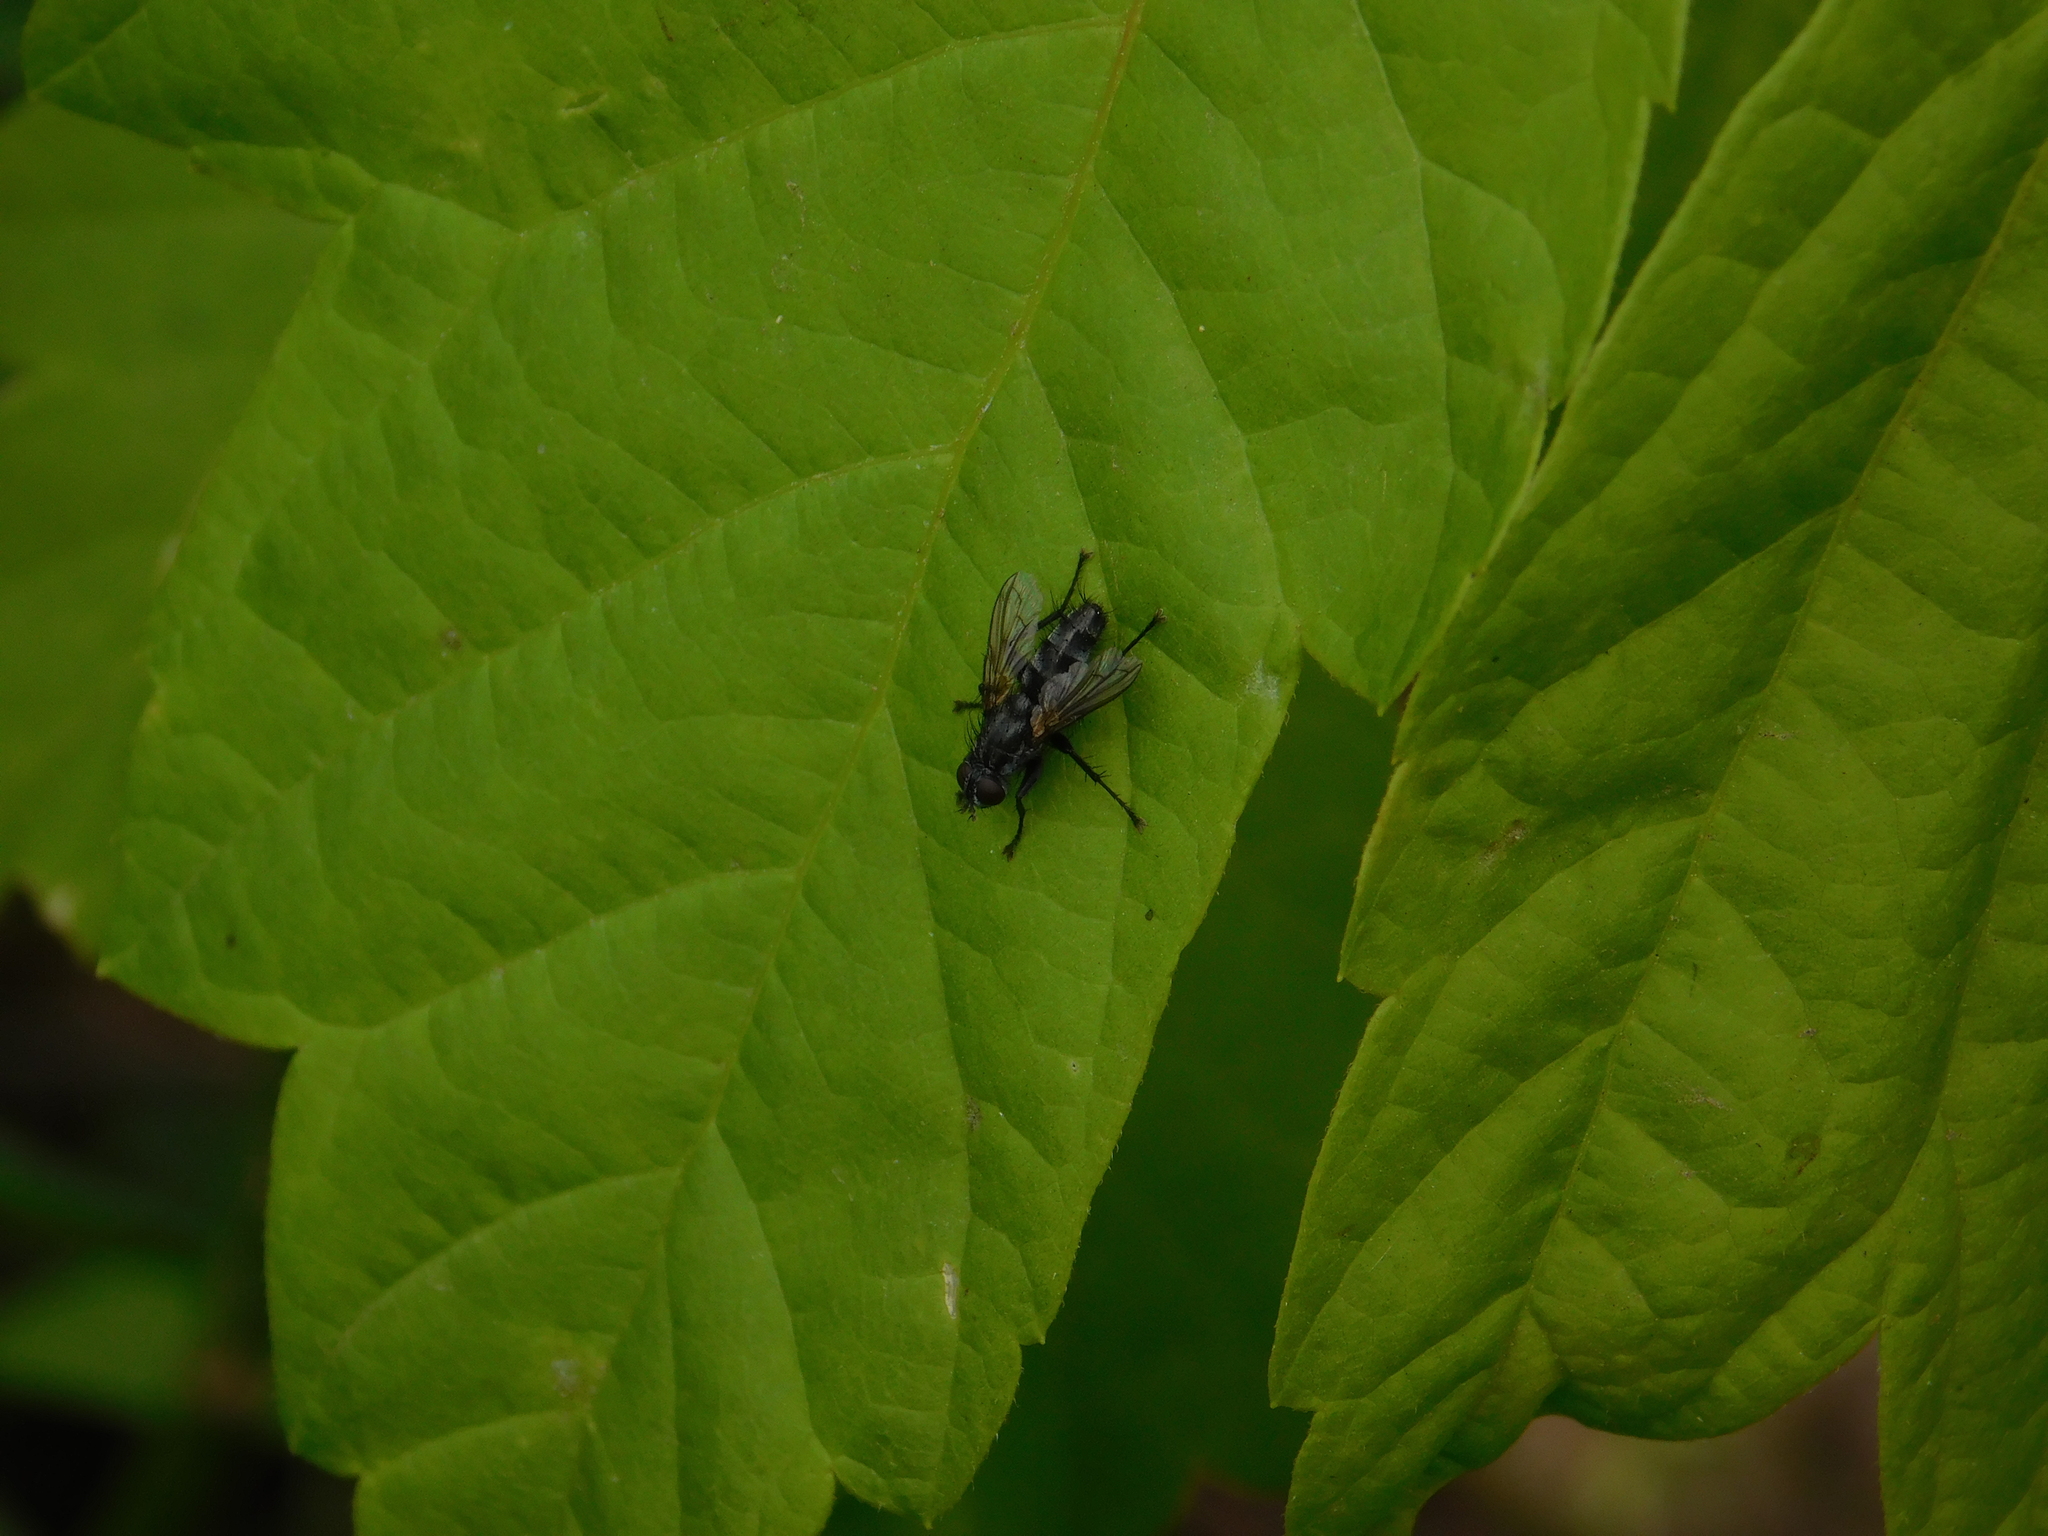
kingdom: Animalia
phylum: Arthropoda
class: Insecta
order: Diptera
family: Calliphoridae
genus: Stevenia
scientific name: Stevenia deceptoria
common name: Grizzled woodlouse-fly
